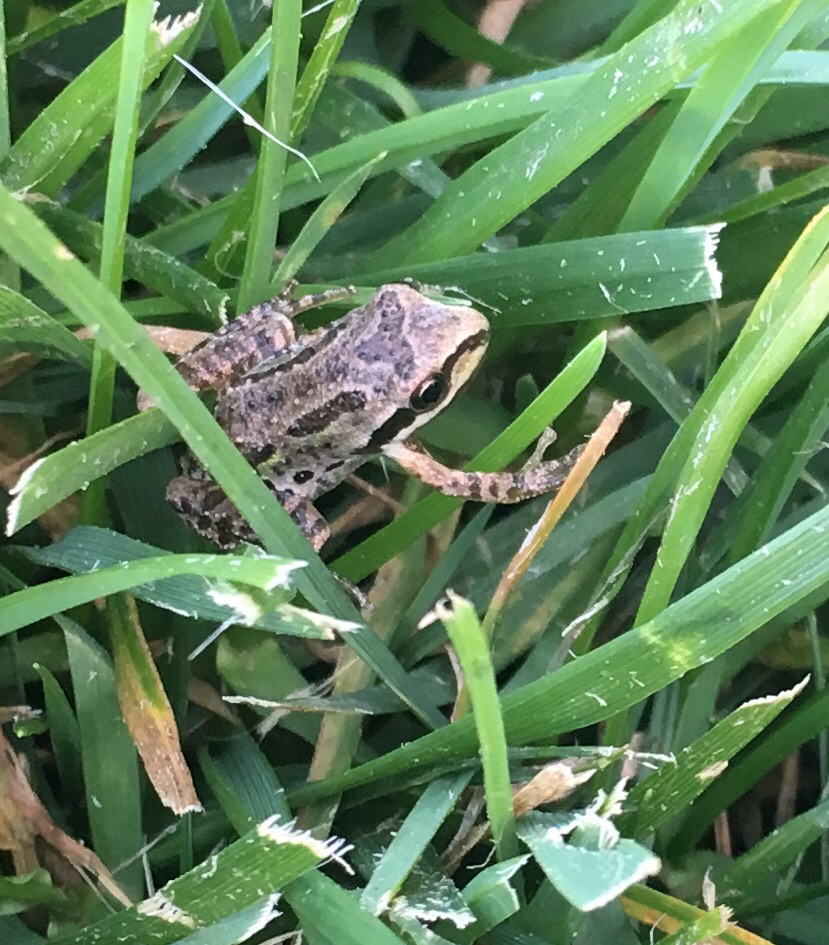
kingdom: Animalia
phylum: Chordata
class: Amphibia
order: Anura
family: Hylidae
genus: Pseudacris
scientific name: Pseudacris regilla
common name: Pacific chorus frog
